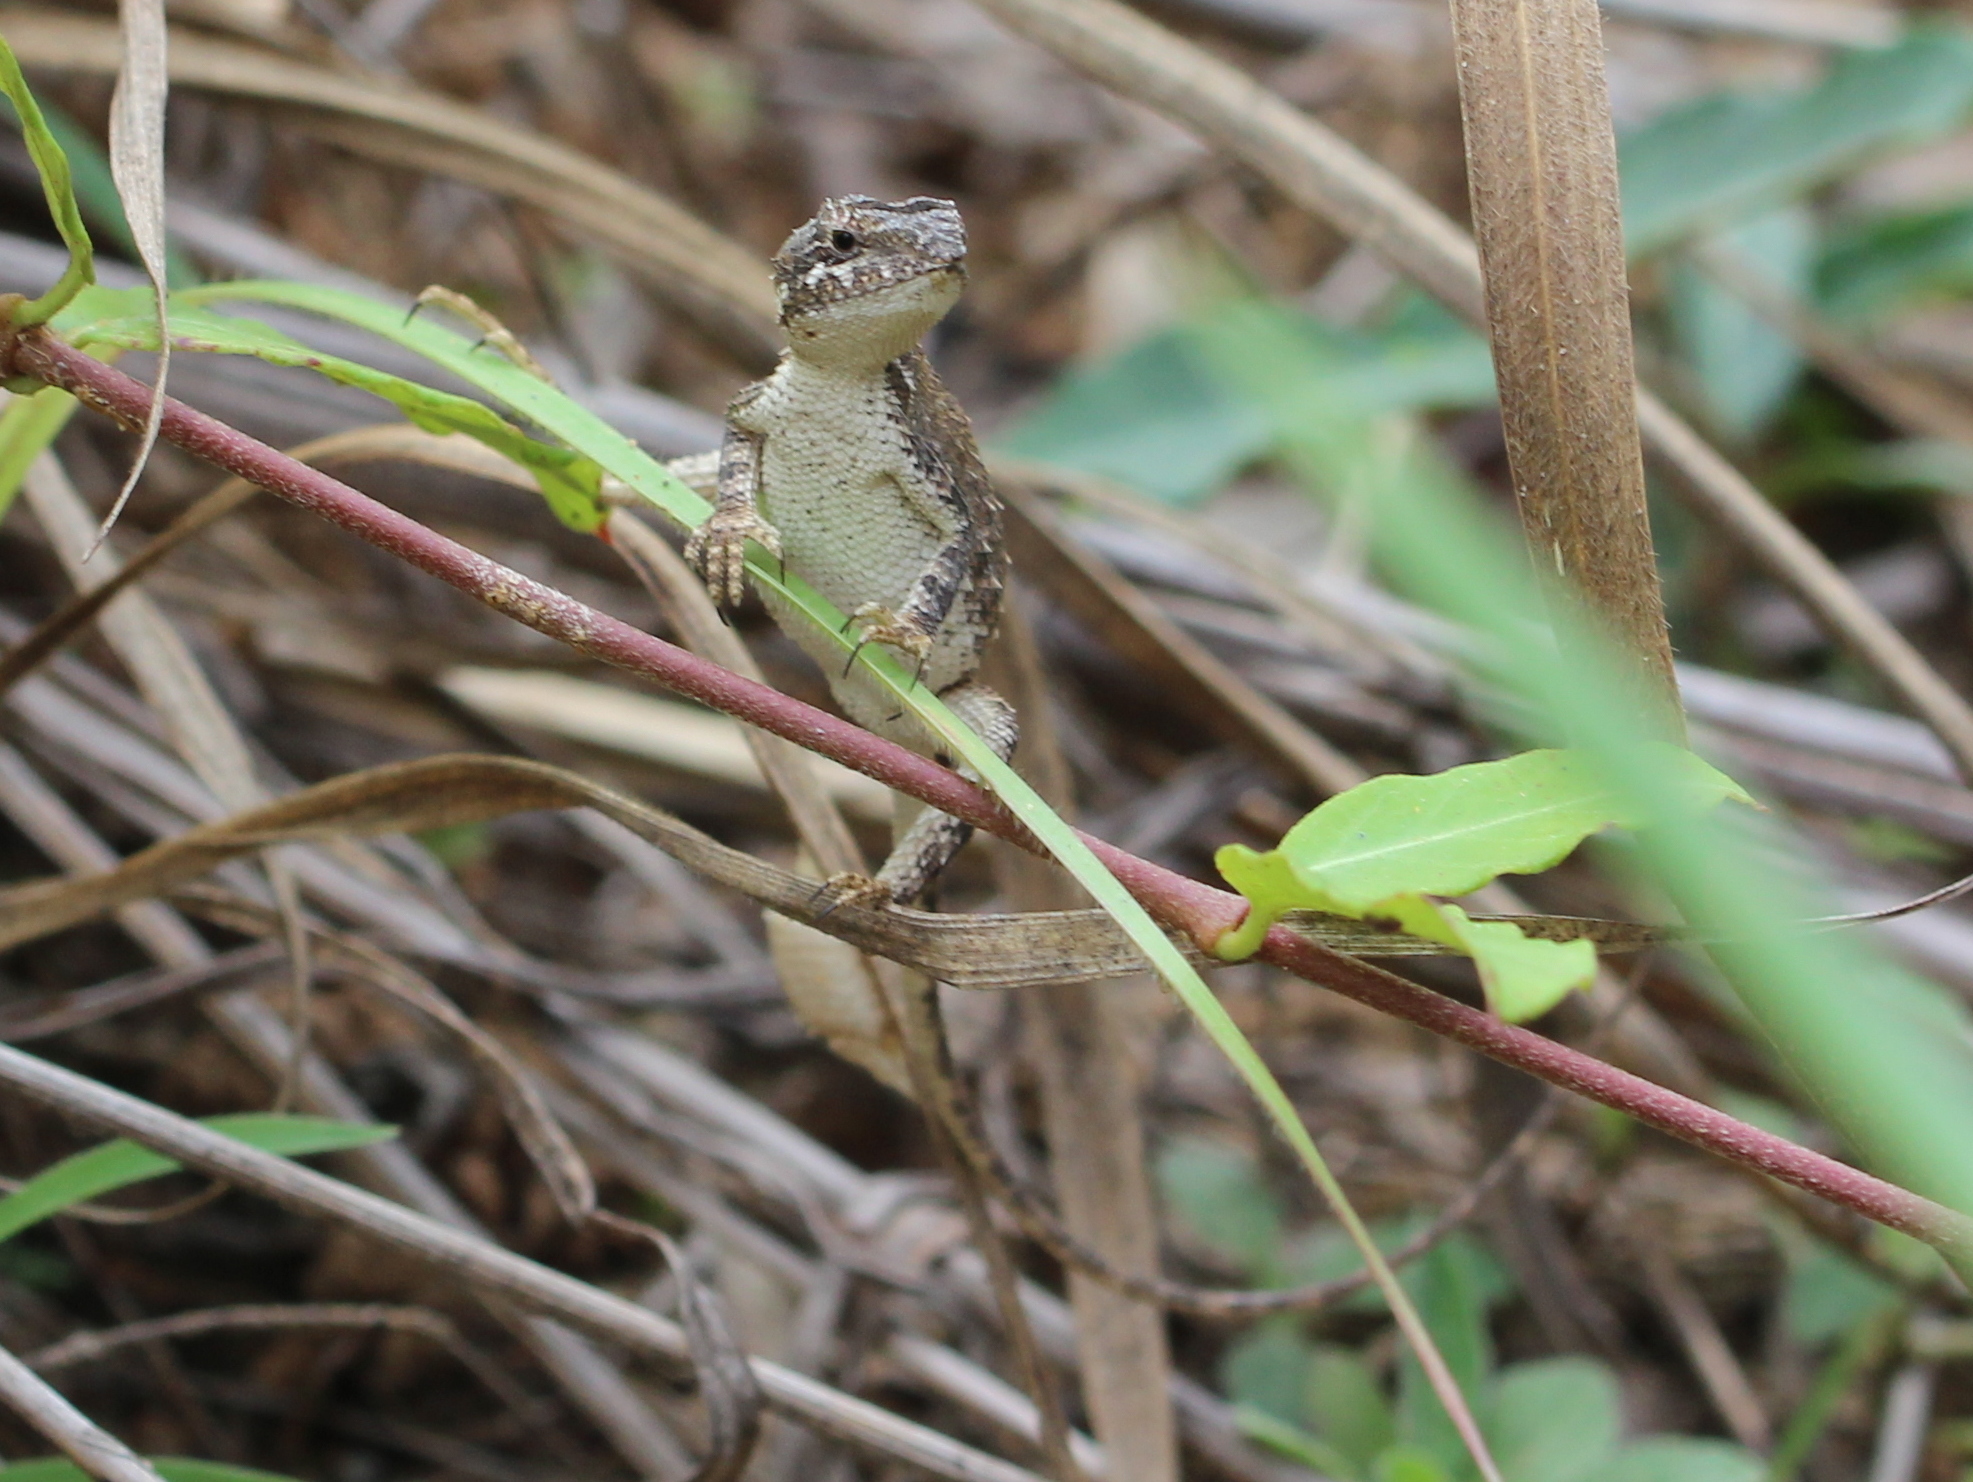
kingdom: Animalia
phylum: Chordata
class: Squamata
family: Agamidae
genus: Sitana
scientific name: Sitana ponticeriana
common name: Pondichéry fan throated lizard
